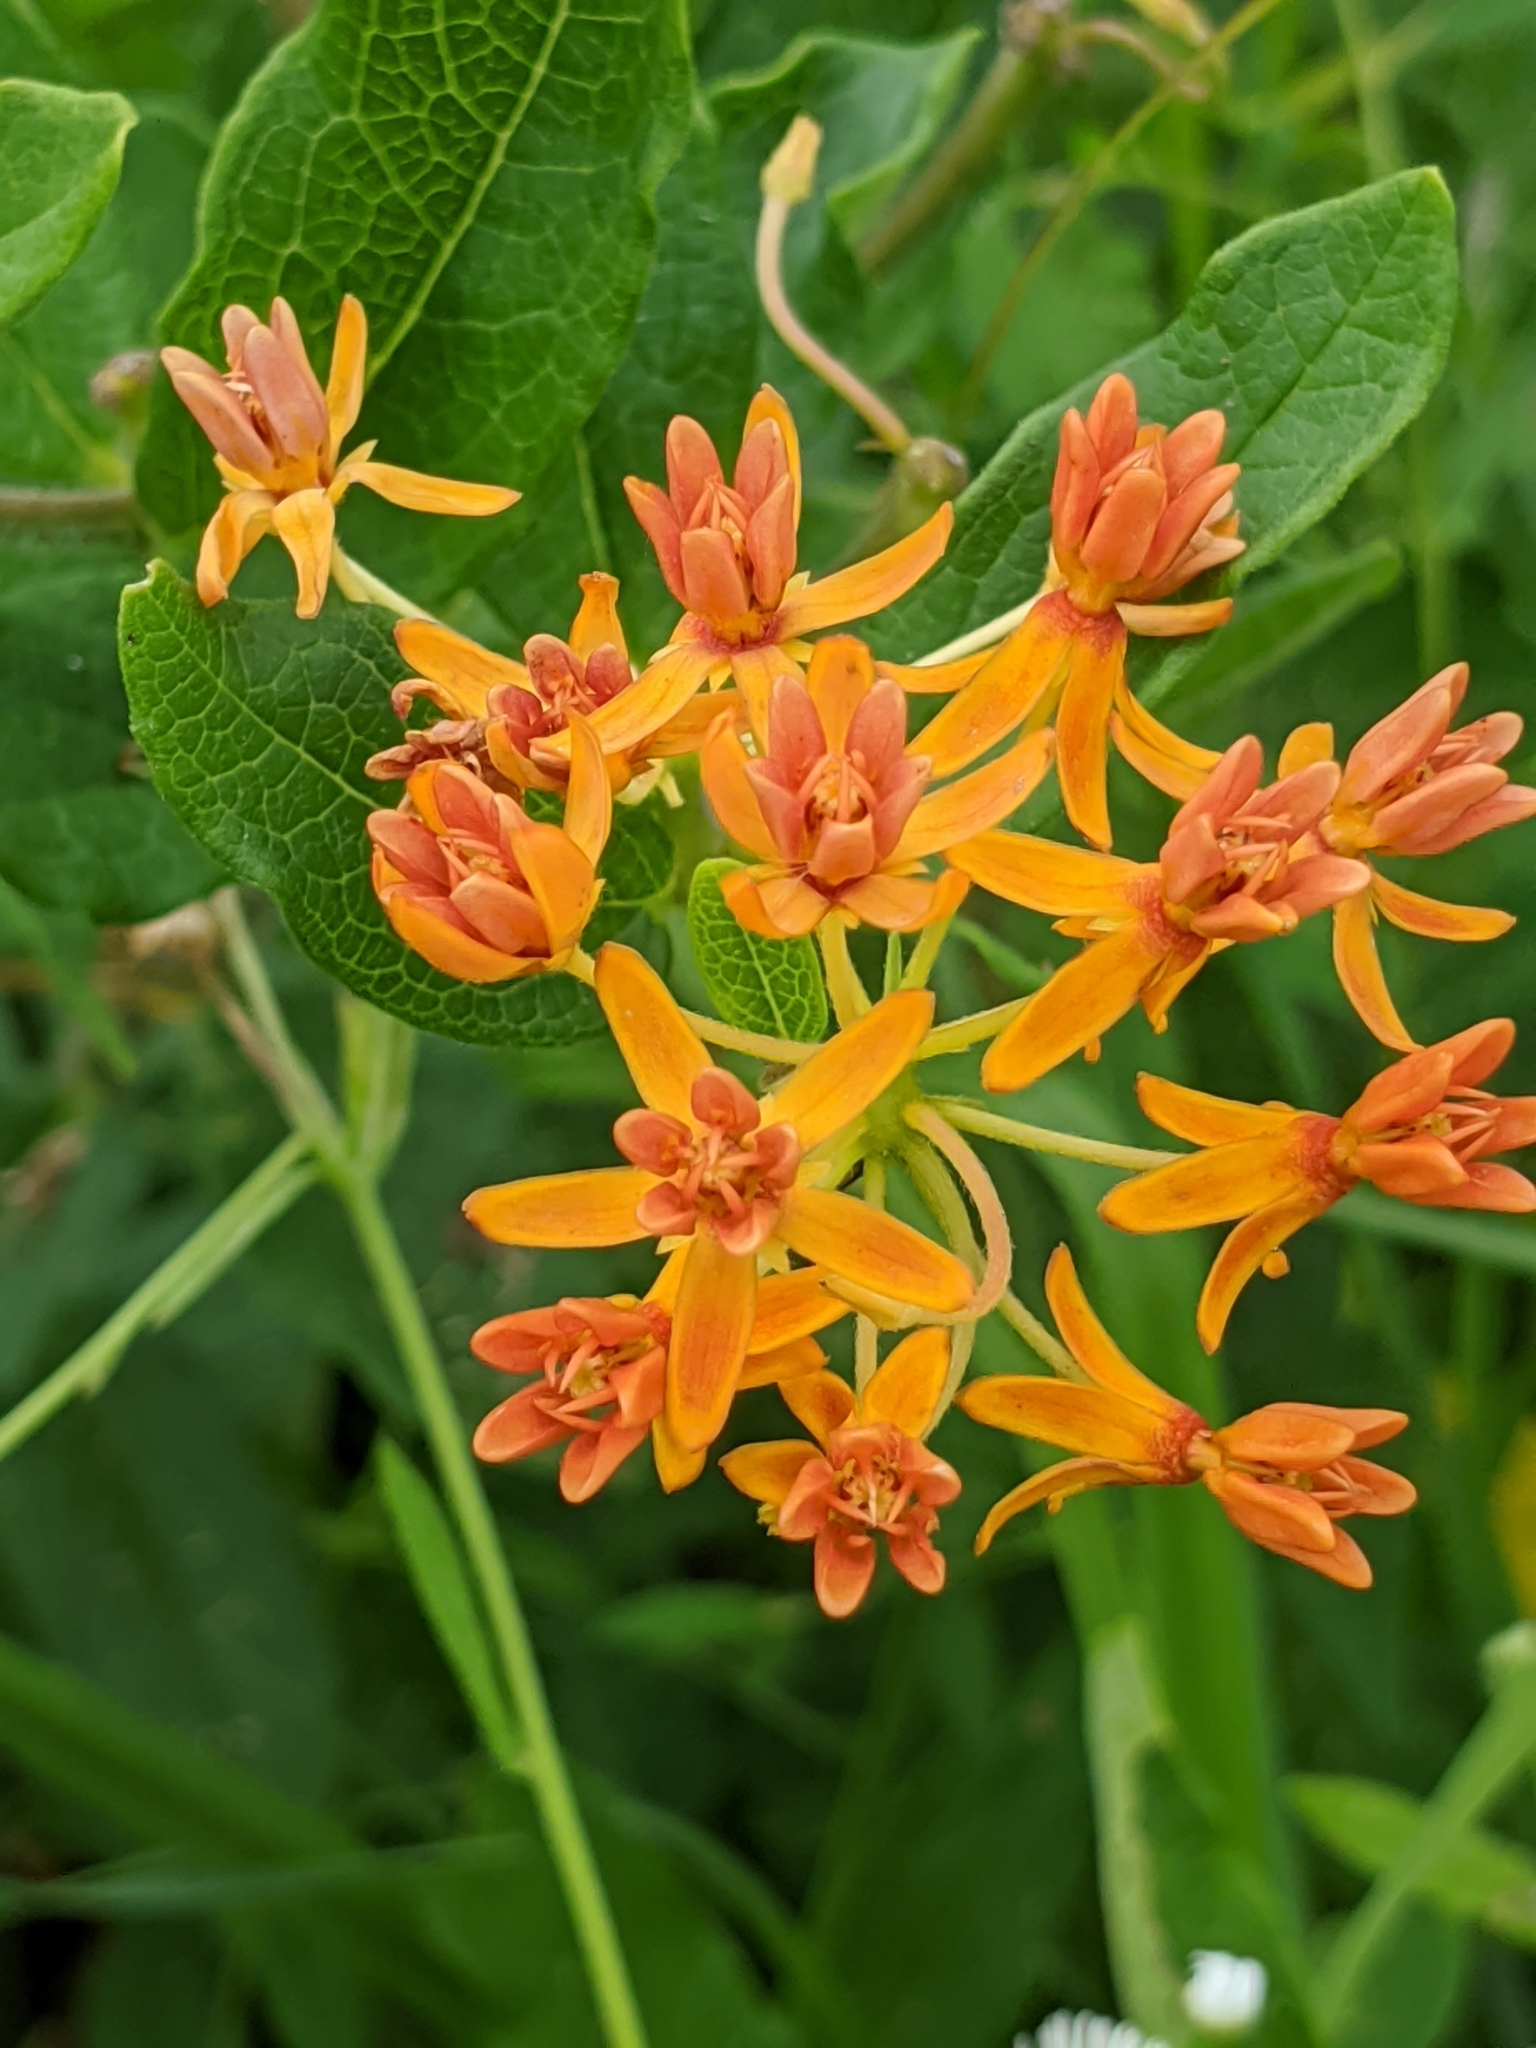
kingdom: Plantae
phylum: Tracheophyta
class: Magnoliopsida
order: Gentianales
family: Apocynaceae
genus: Asclepias
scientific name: Asclepias tuberosa
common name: Butterfly milkweed
